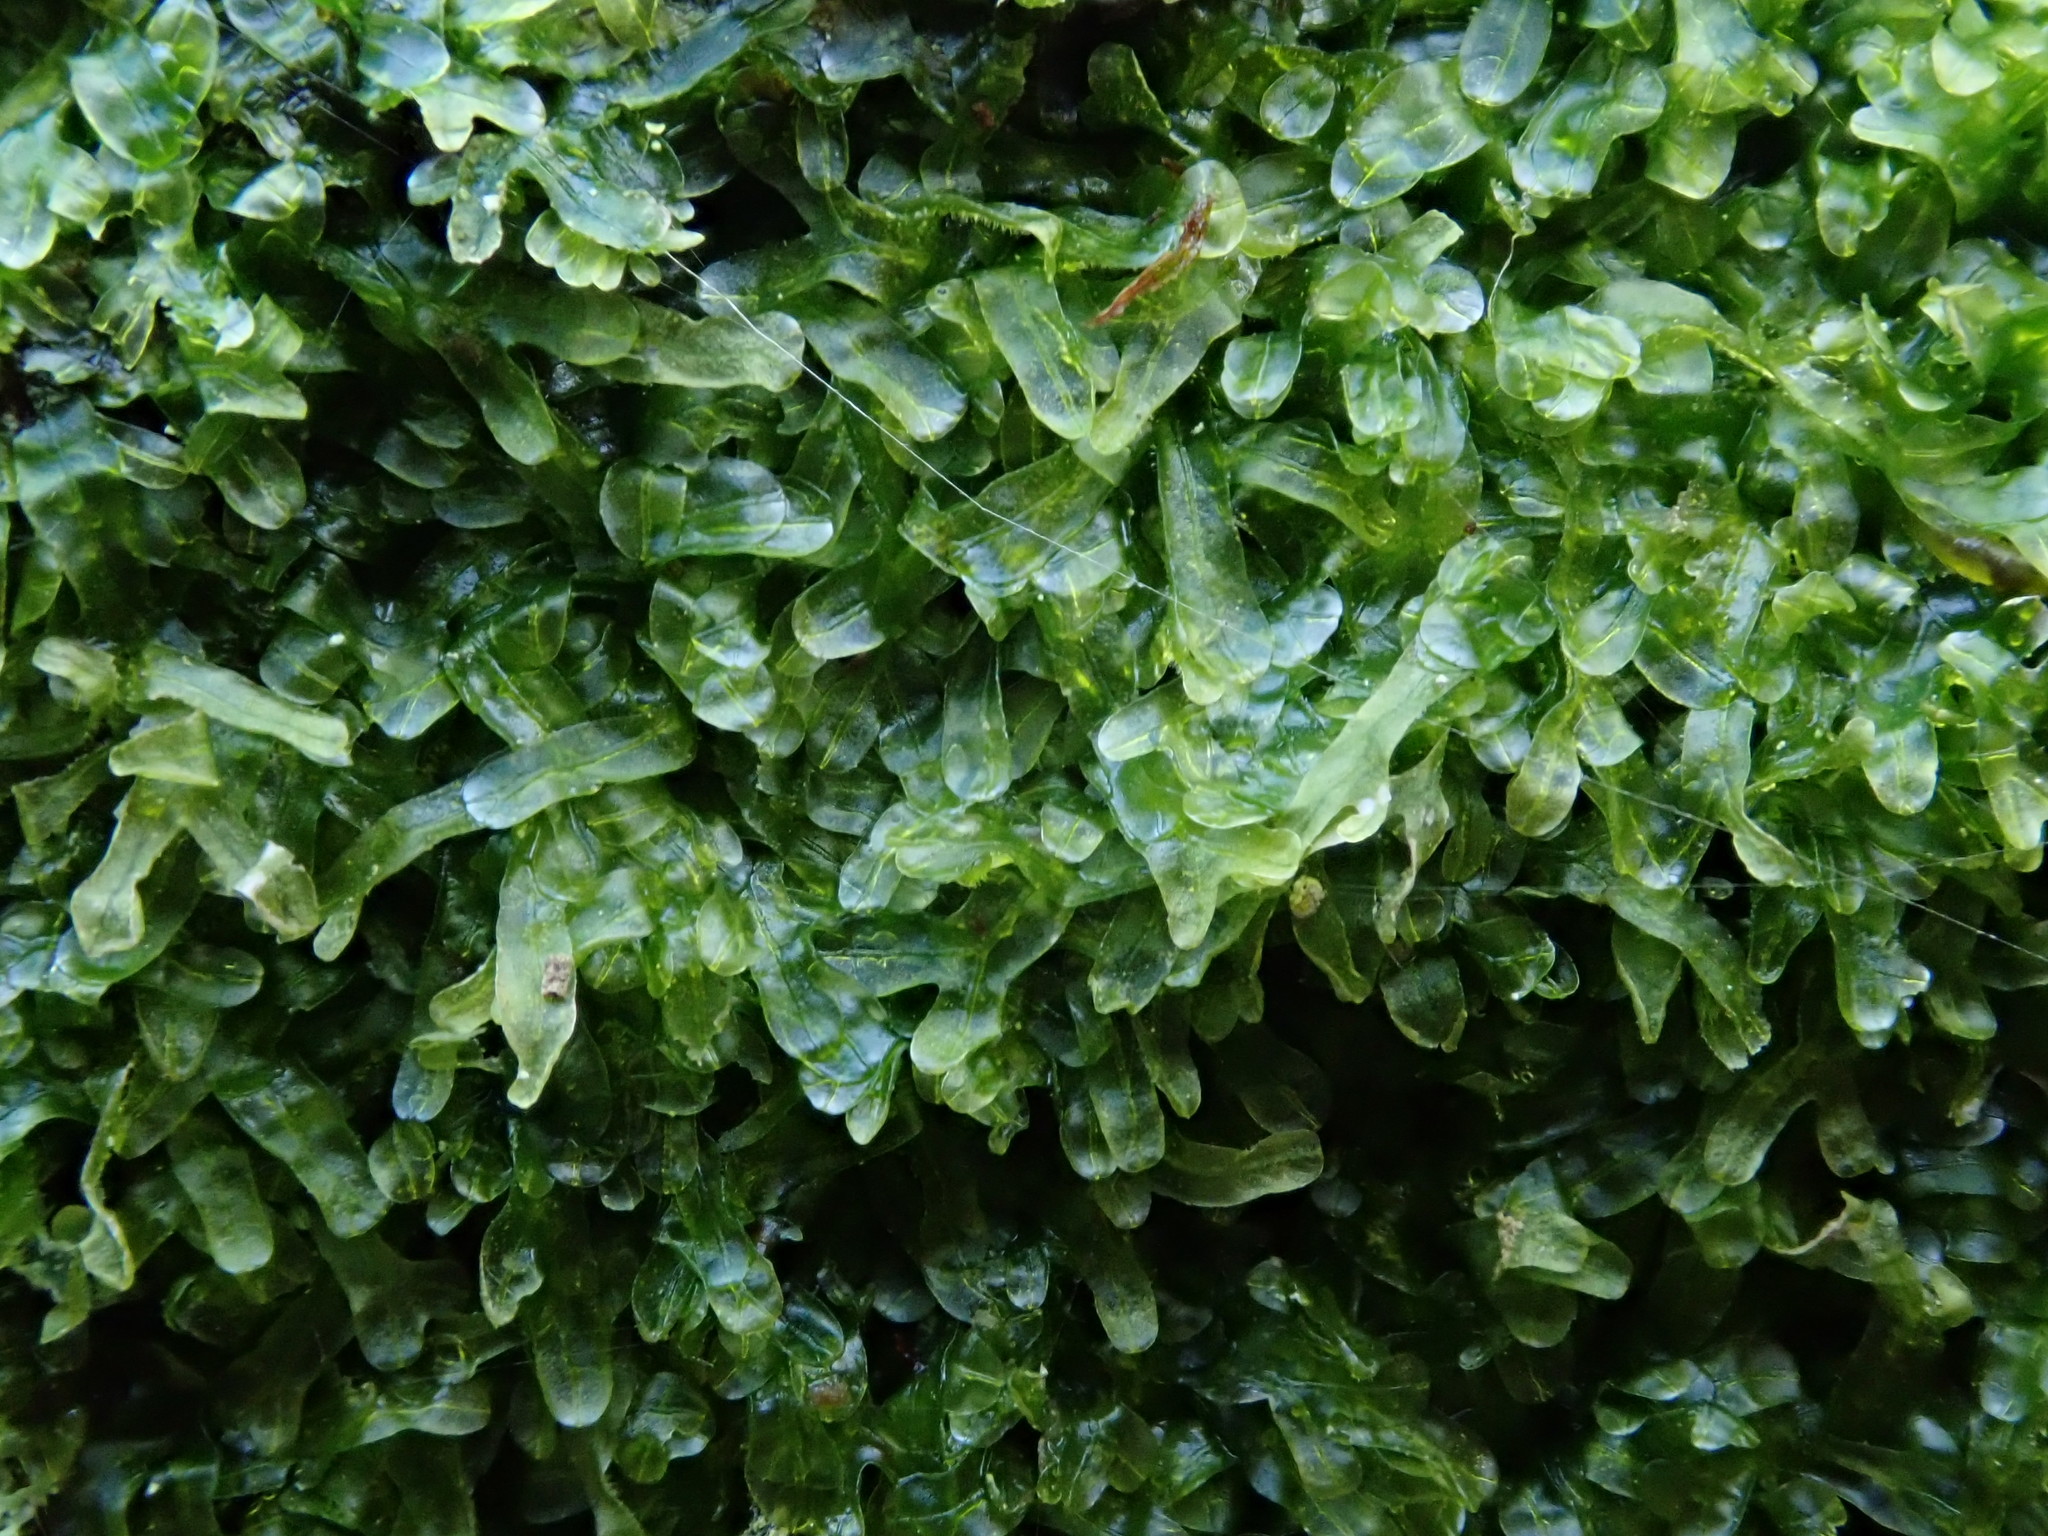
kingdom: Plantae
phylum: Marchantiophyta
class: Jungermanniopsida
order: Metzgeriales
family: Metzgeriaceae
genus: Metzgeria
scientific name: Metzgeria furcata
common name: Forked veilwort
